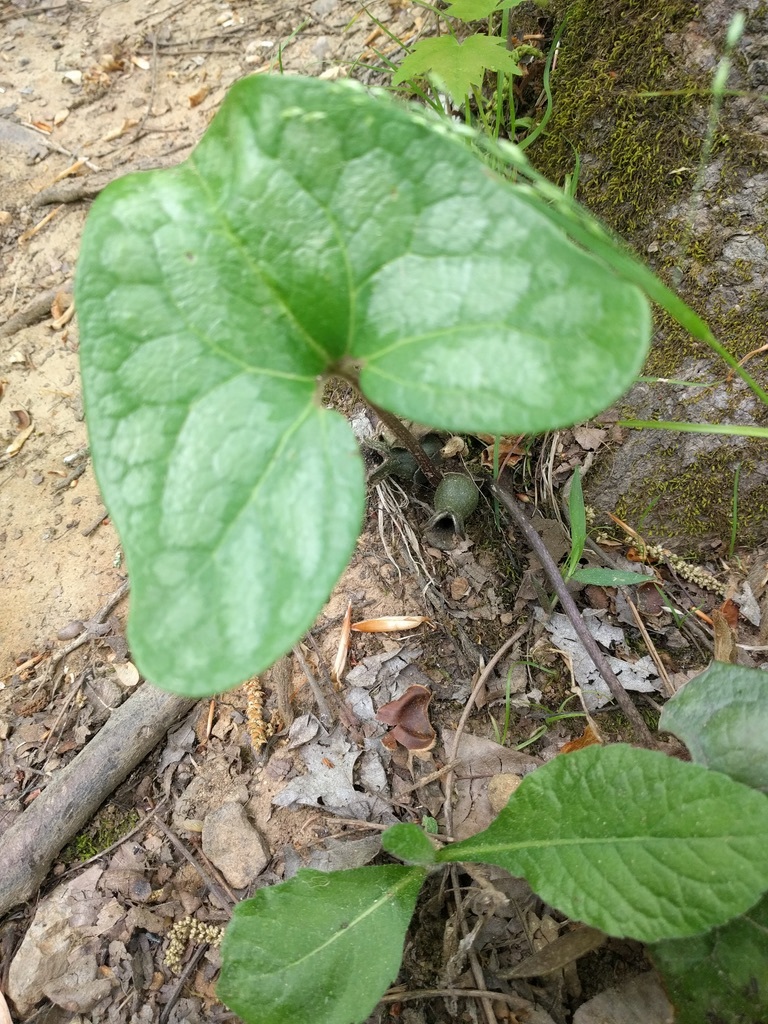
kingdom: Plantae
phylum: Tracheophyta
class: Magnoliopsida
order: Piperales
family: Aristolochiaceae
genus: Hexastylis
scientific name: Hexastylis arifolia
